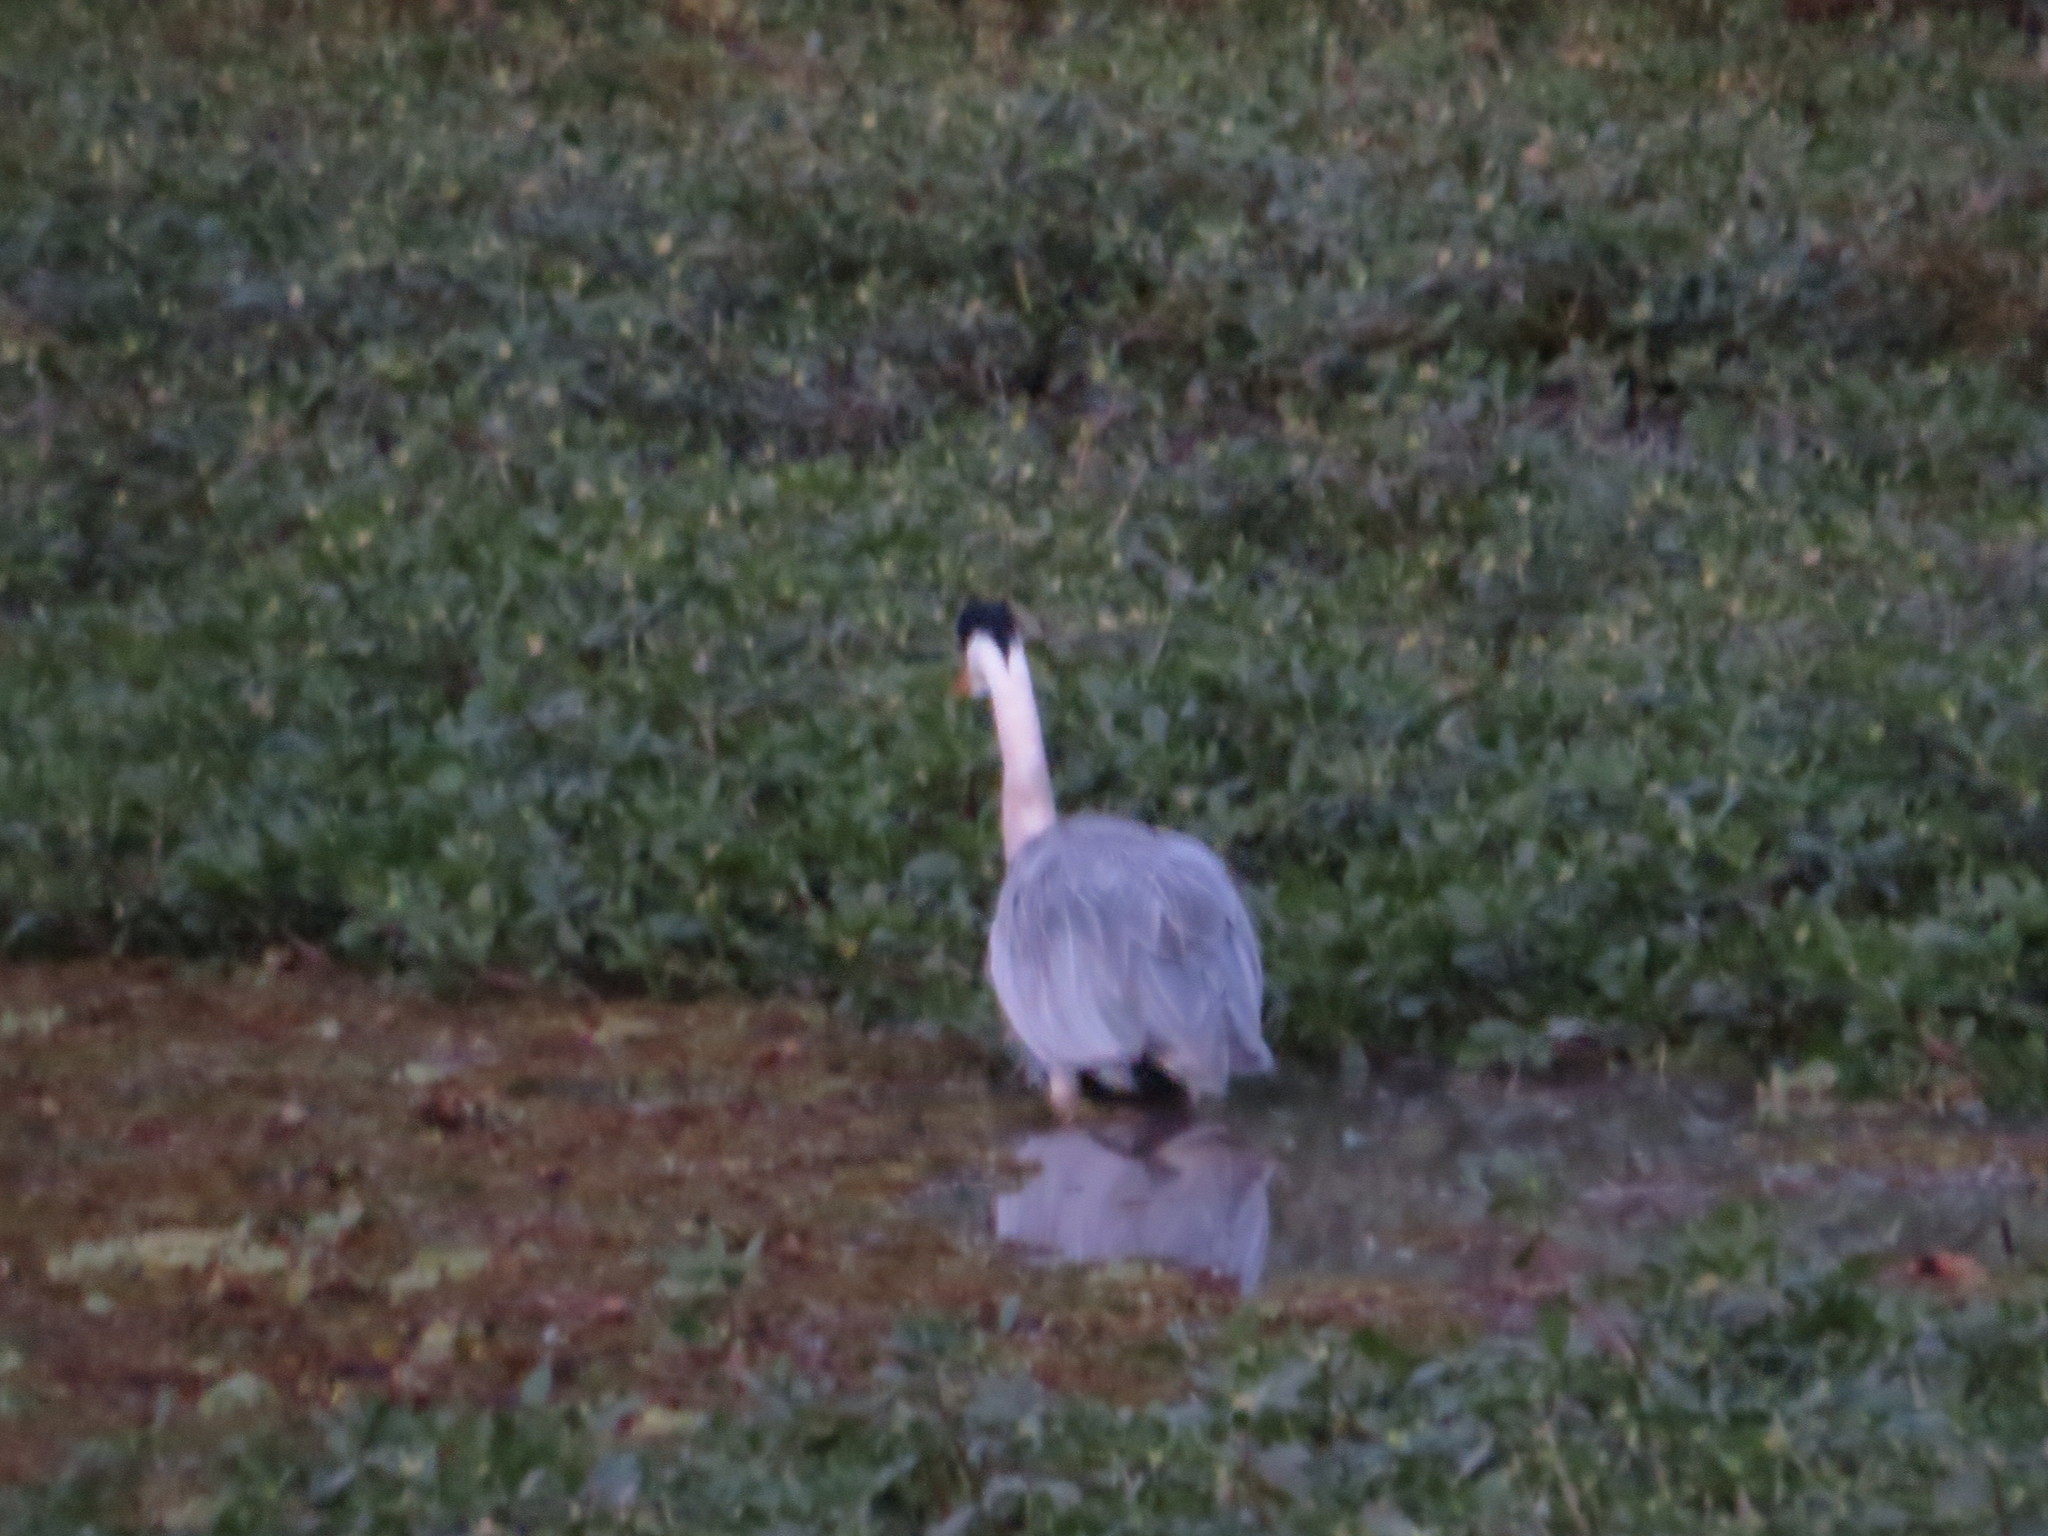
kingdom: Animalia
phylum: Chordata
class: Aves
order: Pelecaniformes
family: Ardeidae
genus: Ardea
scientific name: Ardea cocoi
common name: Cocoi heron
